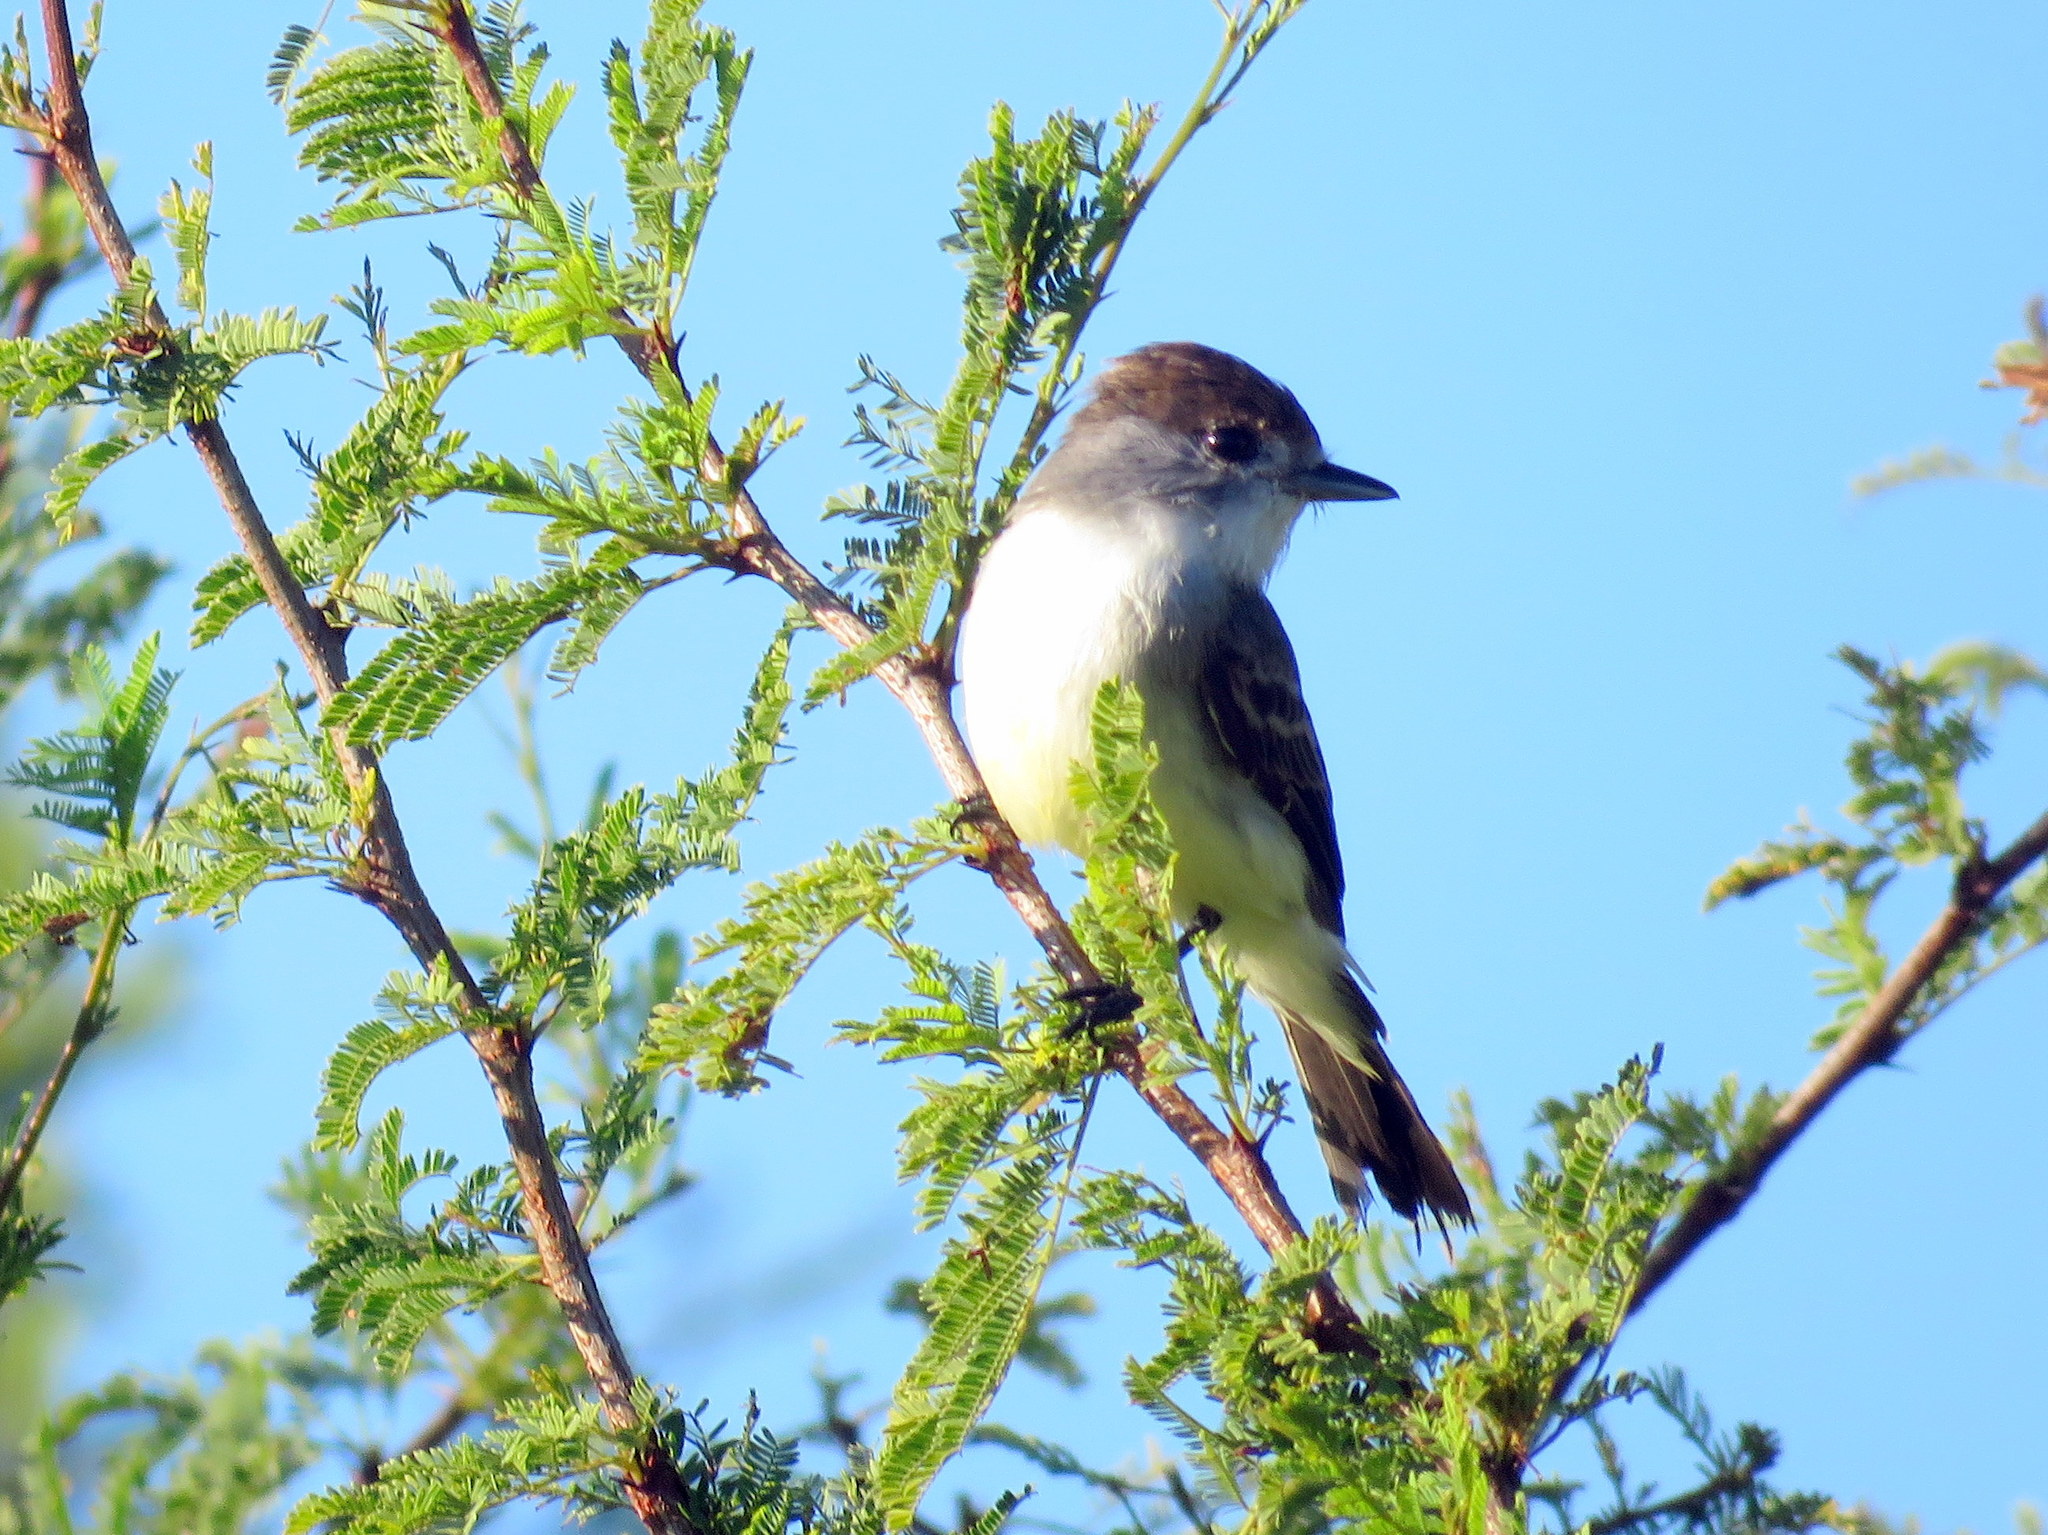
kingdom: Animalia
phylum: Chordata
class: Aves
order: Passeriformes
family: Cotingidae
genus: Xenopsaris
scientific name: Xenopsaris albinucha
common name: White-naped xenopsaris
